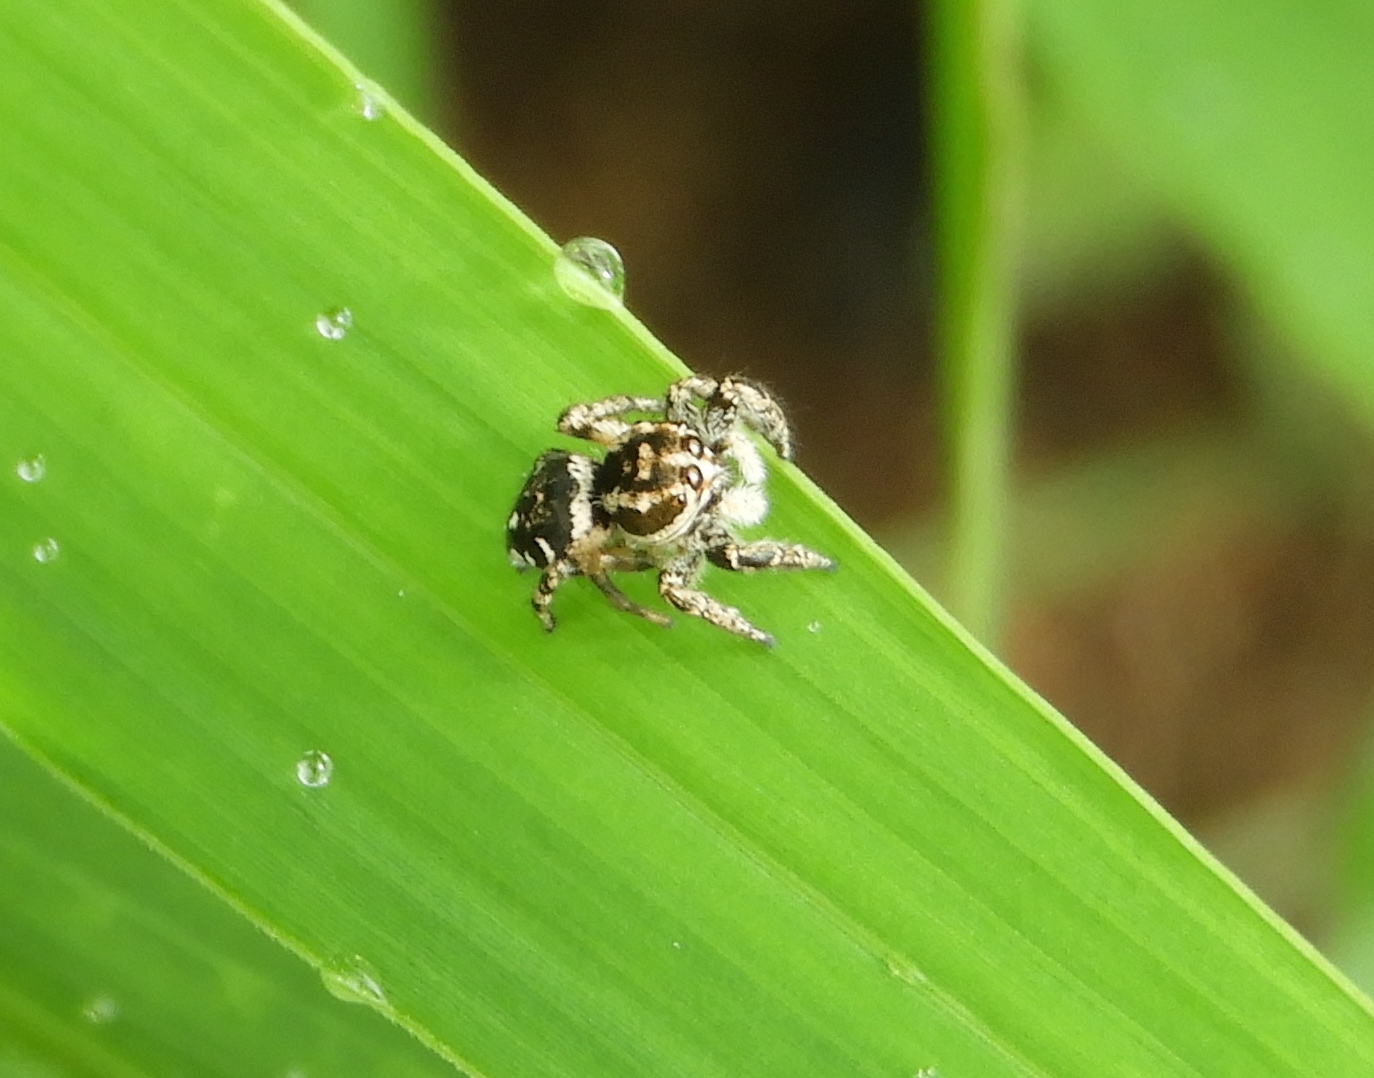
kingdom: Animalia
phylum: Arthropoda
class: Arachnida
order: Araneae
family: Salticidae
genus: Harmochirina
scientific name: Harmochirina
